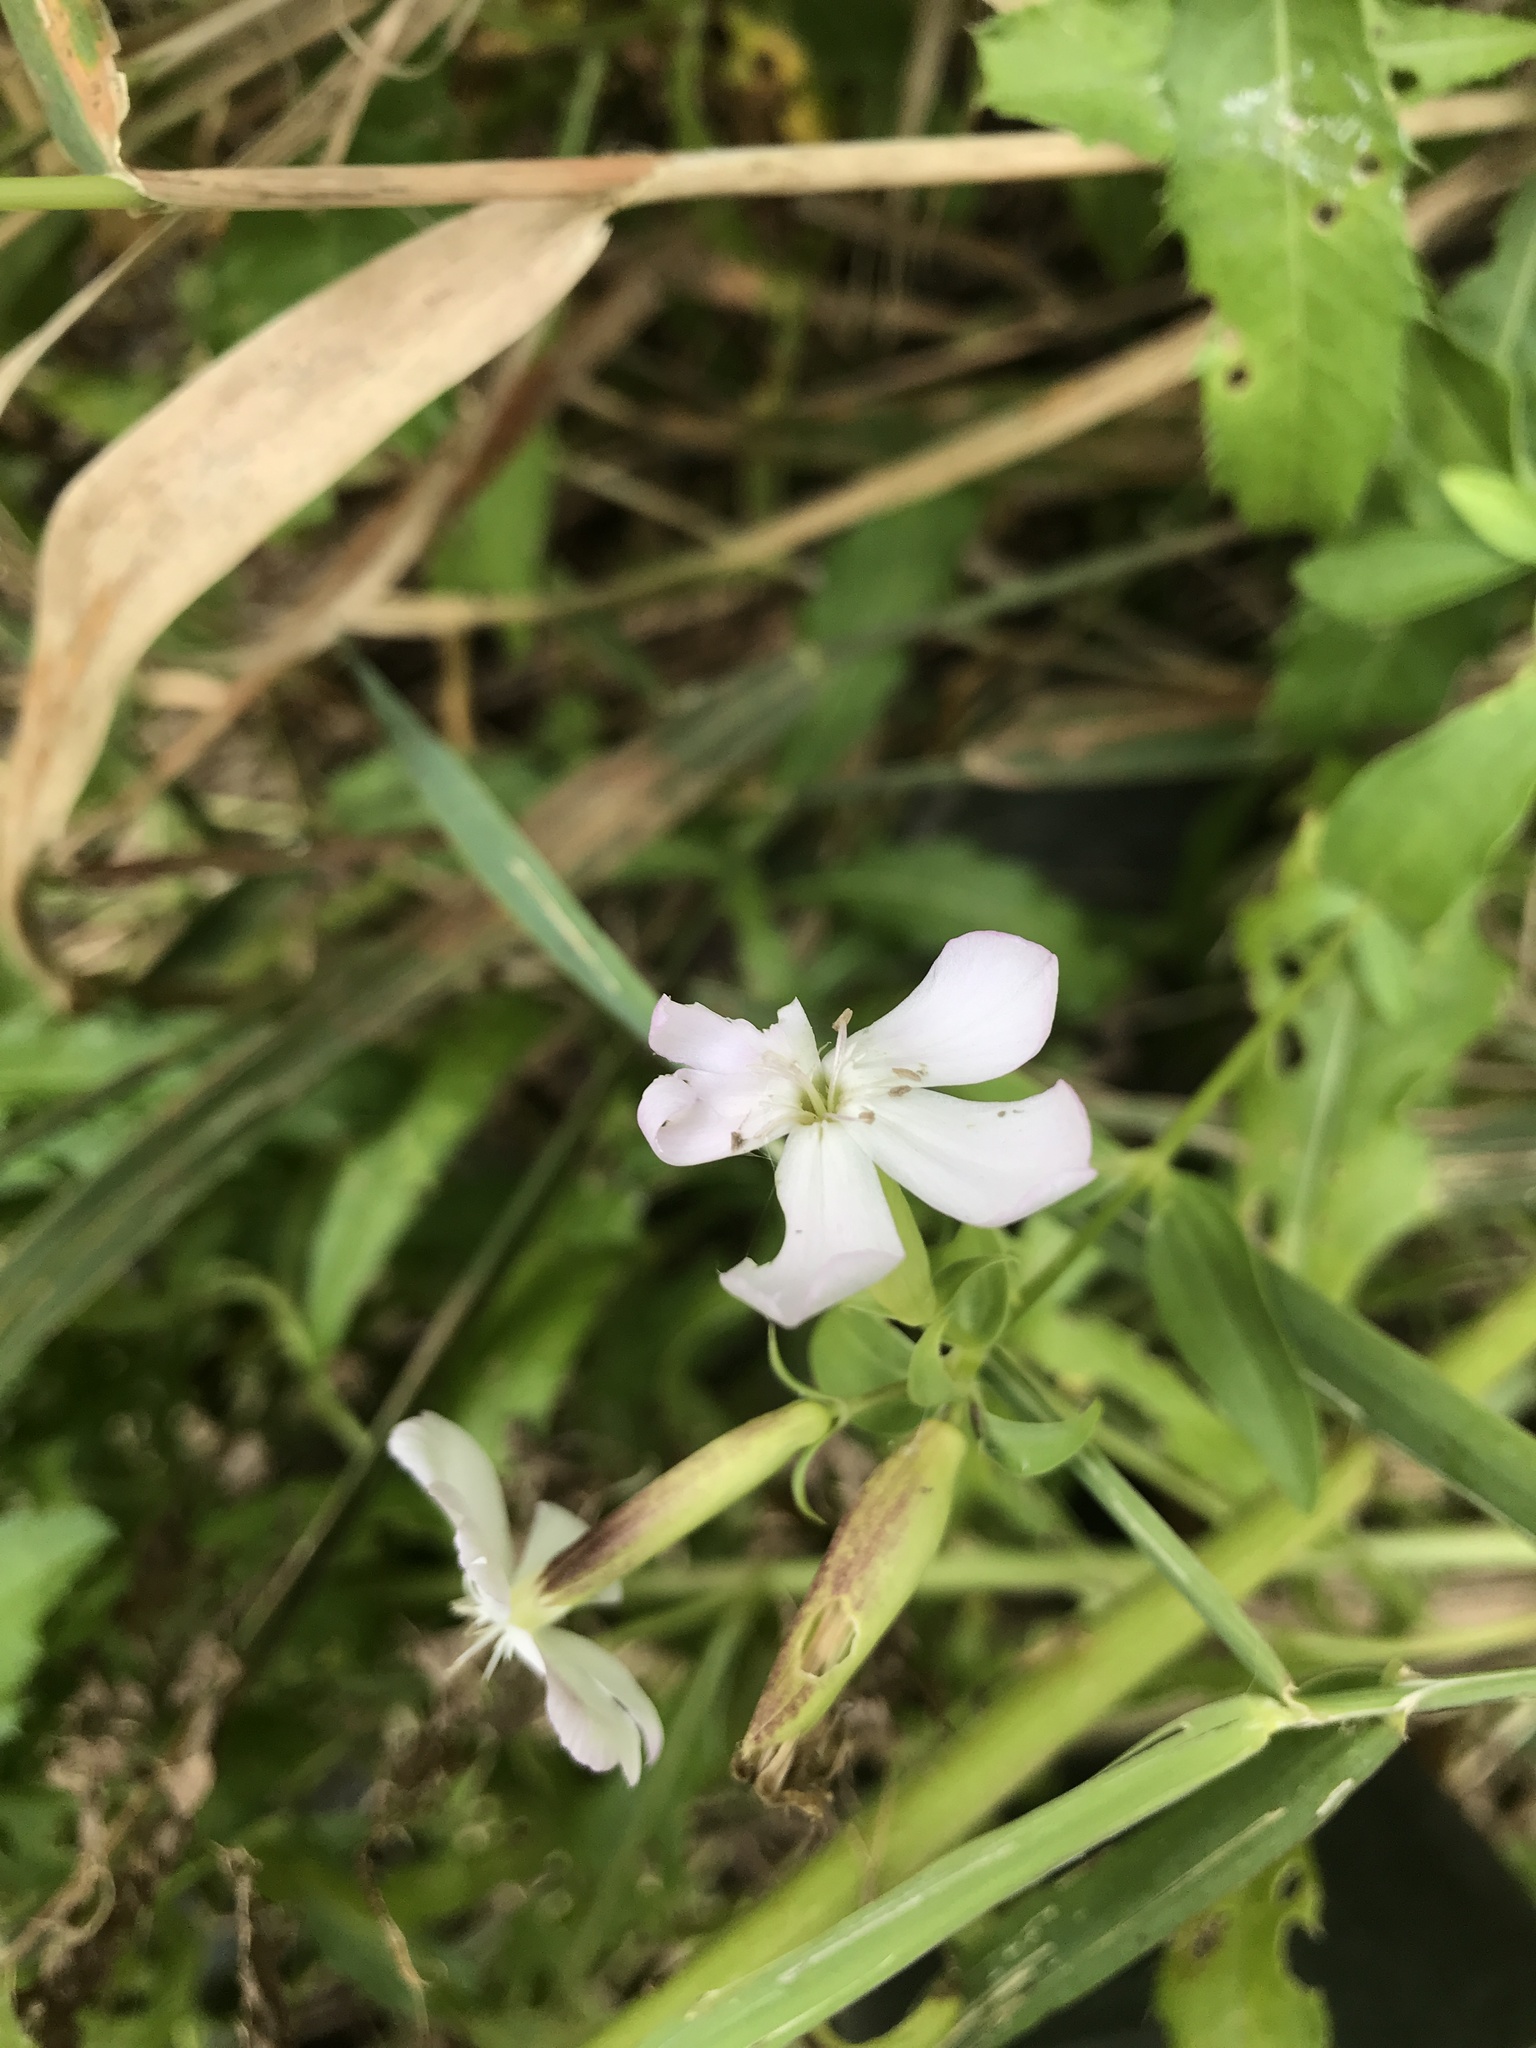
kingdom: Plantae
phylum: Tracheophyta
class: Magnoliopsida
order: Caryophyllales
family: Caryophyllaceae
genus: Saponaria
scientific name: Saponaria officinalis
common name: Soapwort
